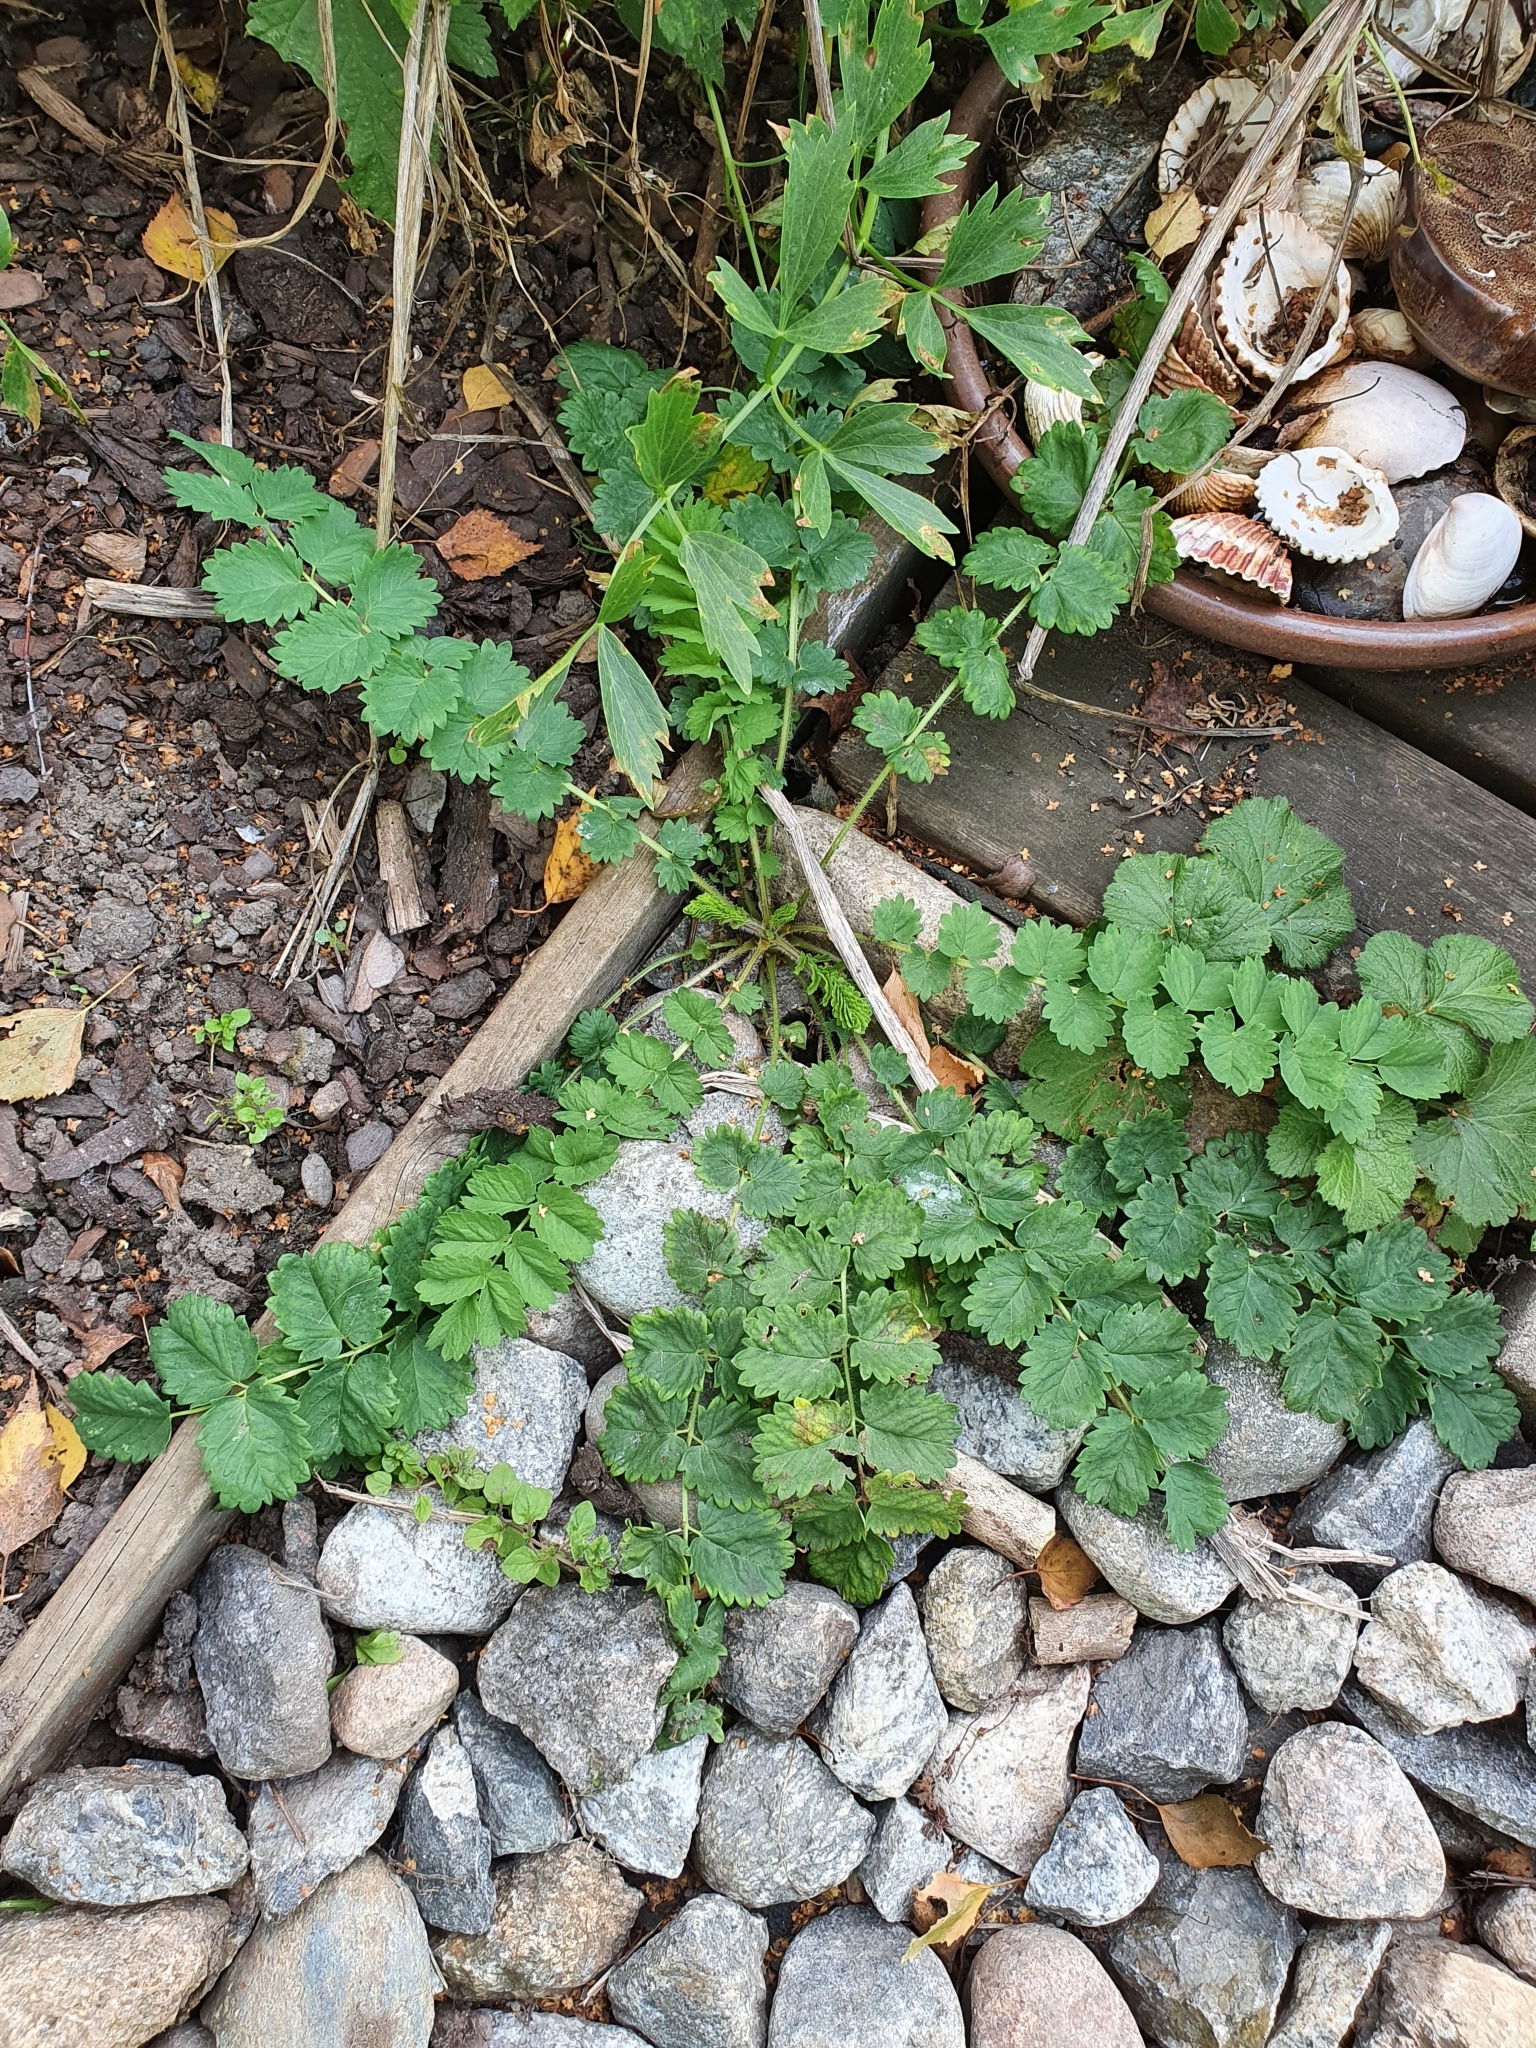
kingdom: Plantae
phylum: Tracheophyta
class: Magnoliopsida
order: Rosales
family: Rosaceae
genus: Poterium
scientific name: Poterium sanguisorba
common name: Salad burnet
